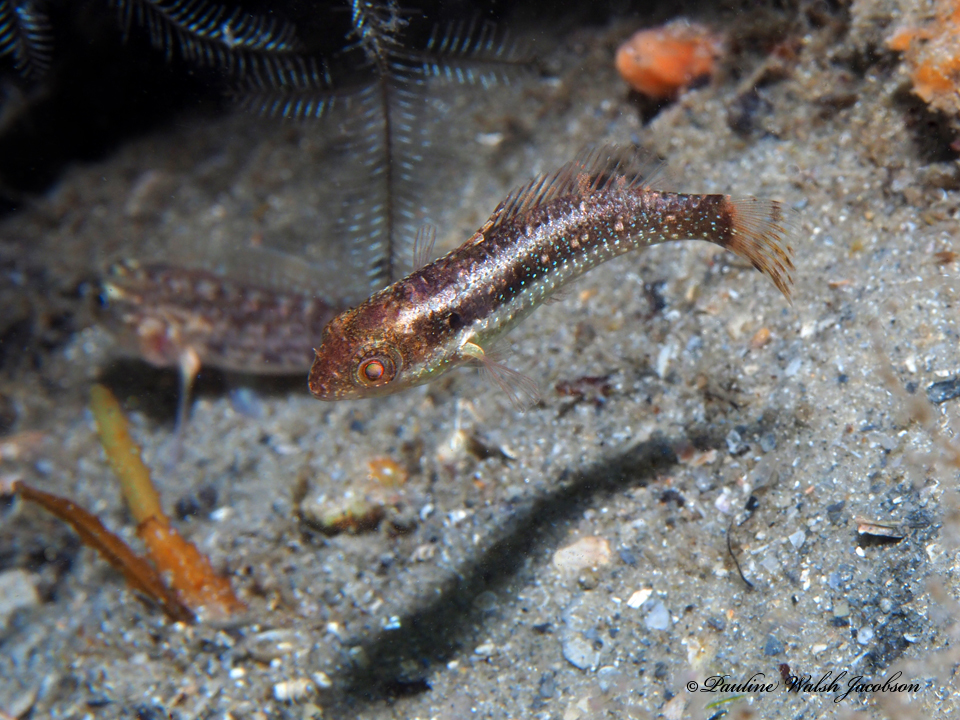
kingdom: Animalia
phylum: Chordata
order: Perciformes
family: Scaridae
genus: Sparisoma
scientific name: Sparisoma aurofrenatum
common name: Redband parrotfish
